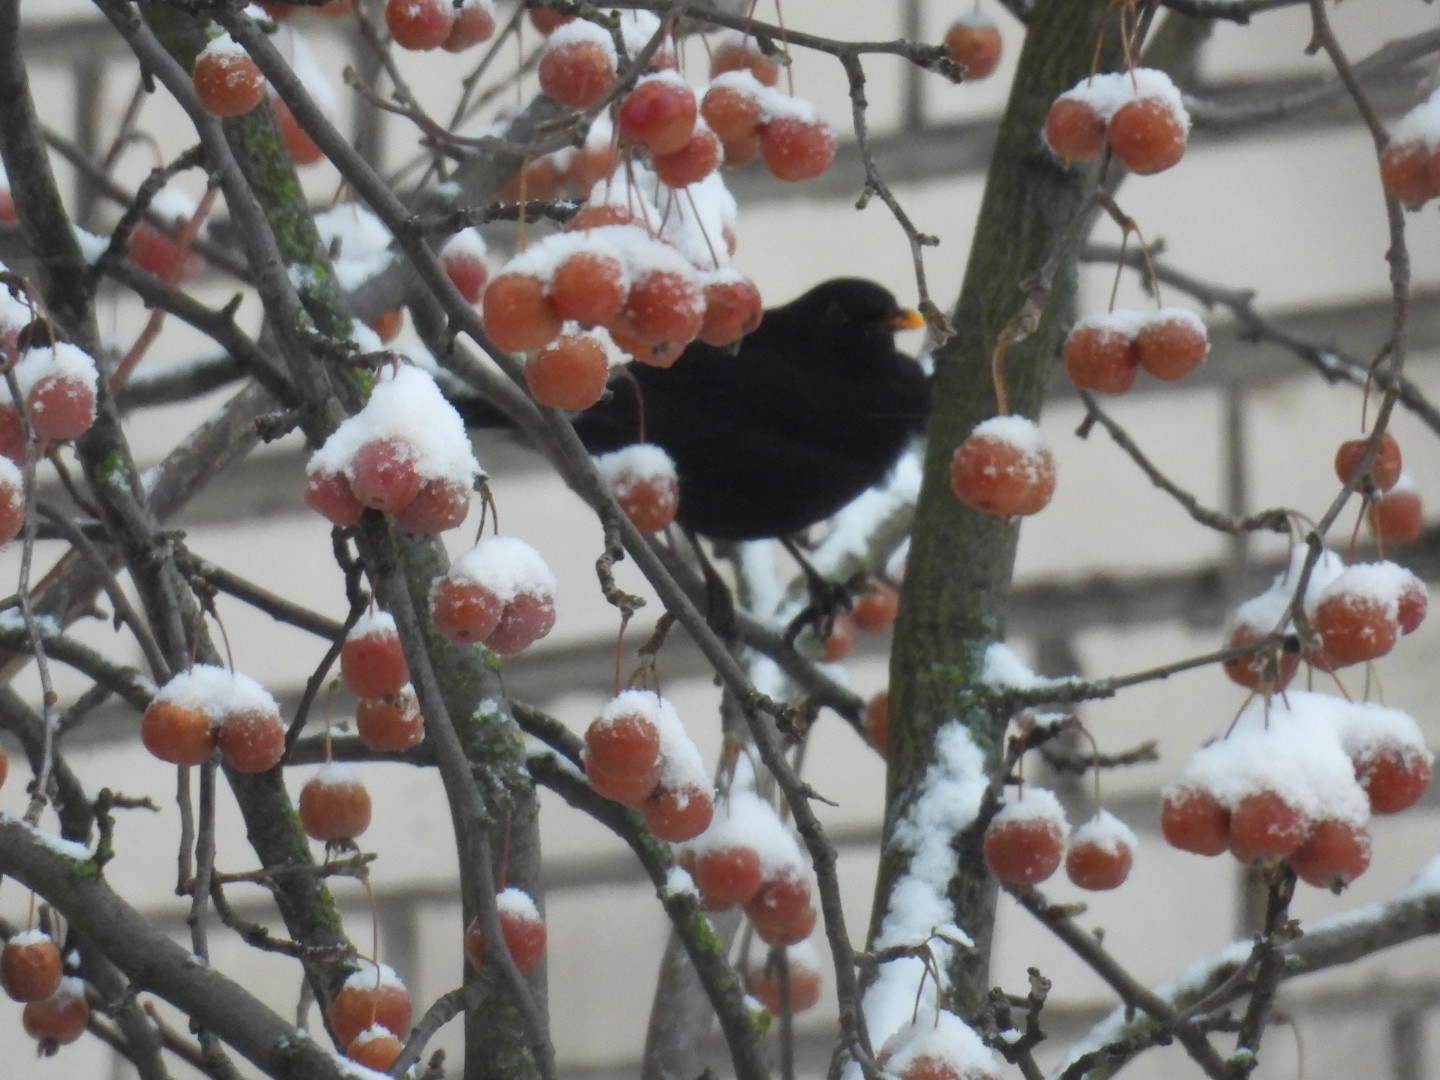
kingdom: Animalia
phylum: Chordata
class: Aves
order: Passeriformes
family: Turdidae
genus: Turdus
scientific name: Turdus merula
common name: Common blackbird
